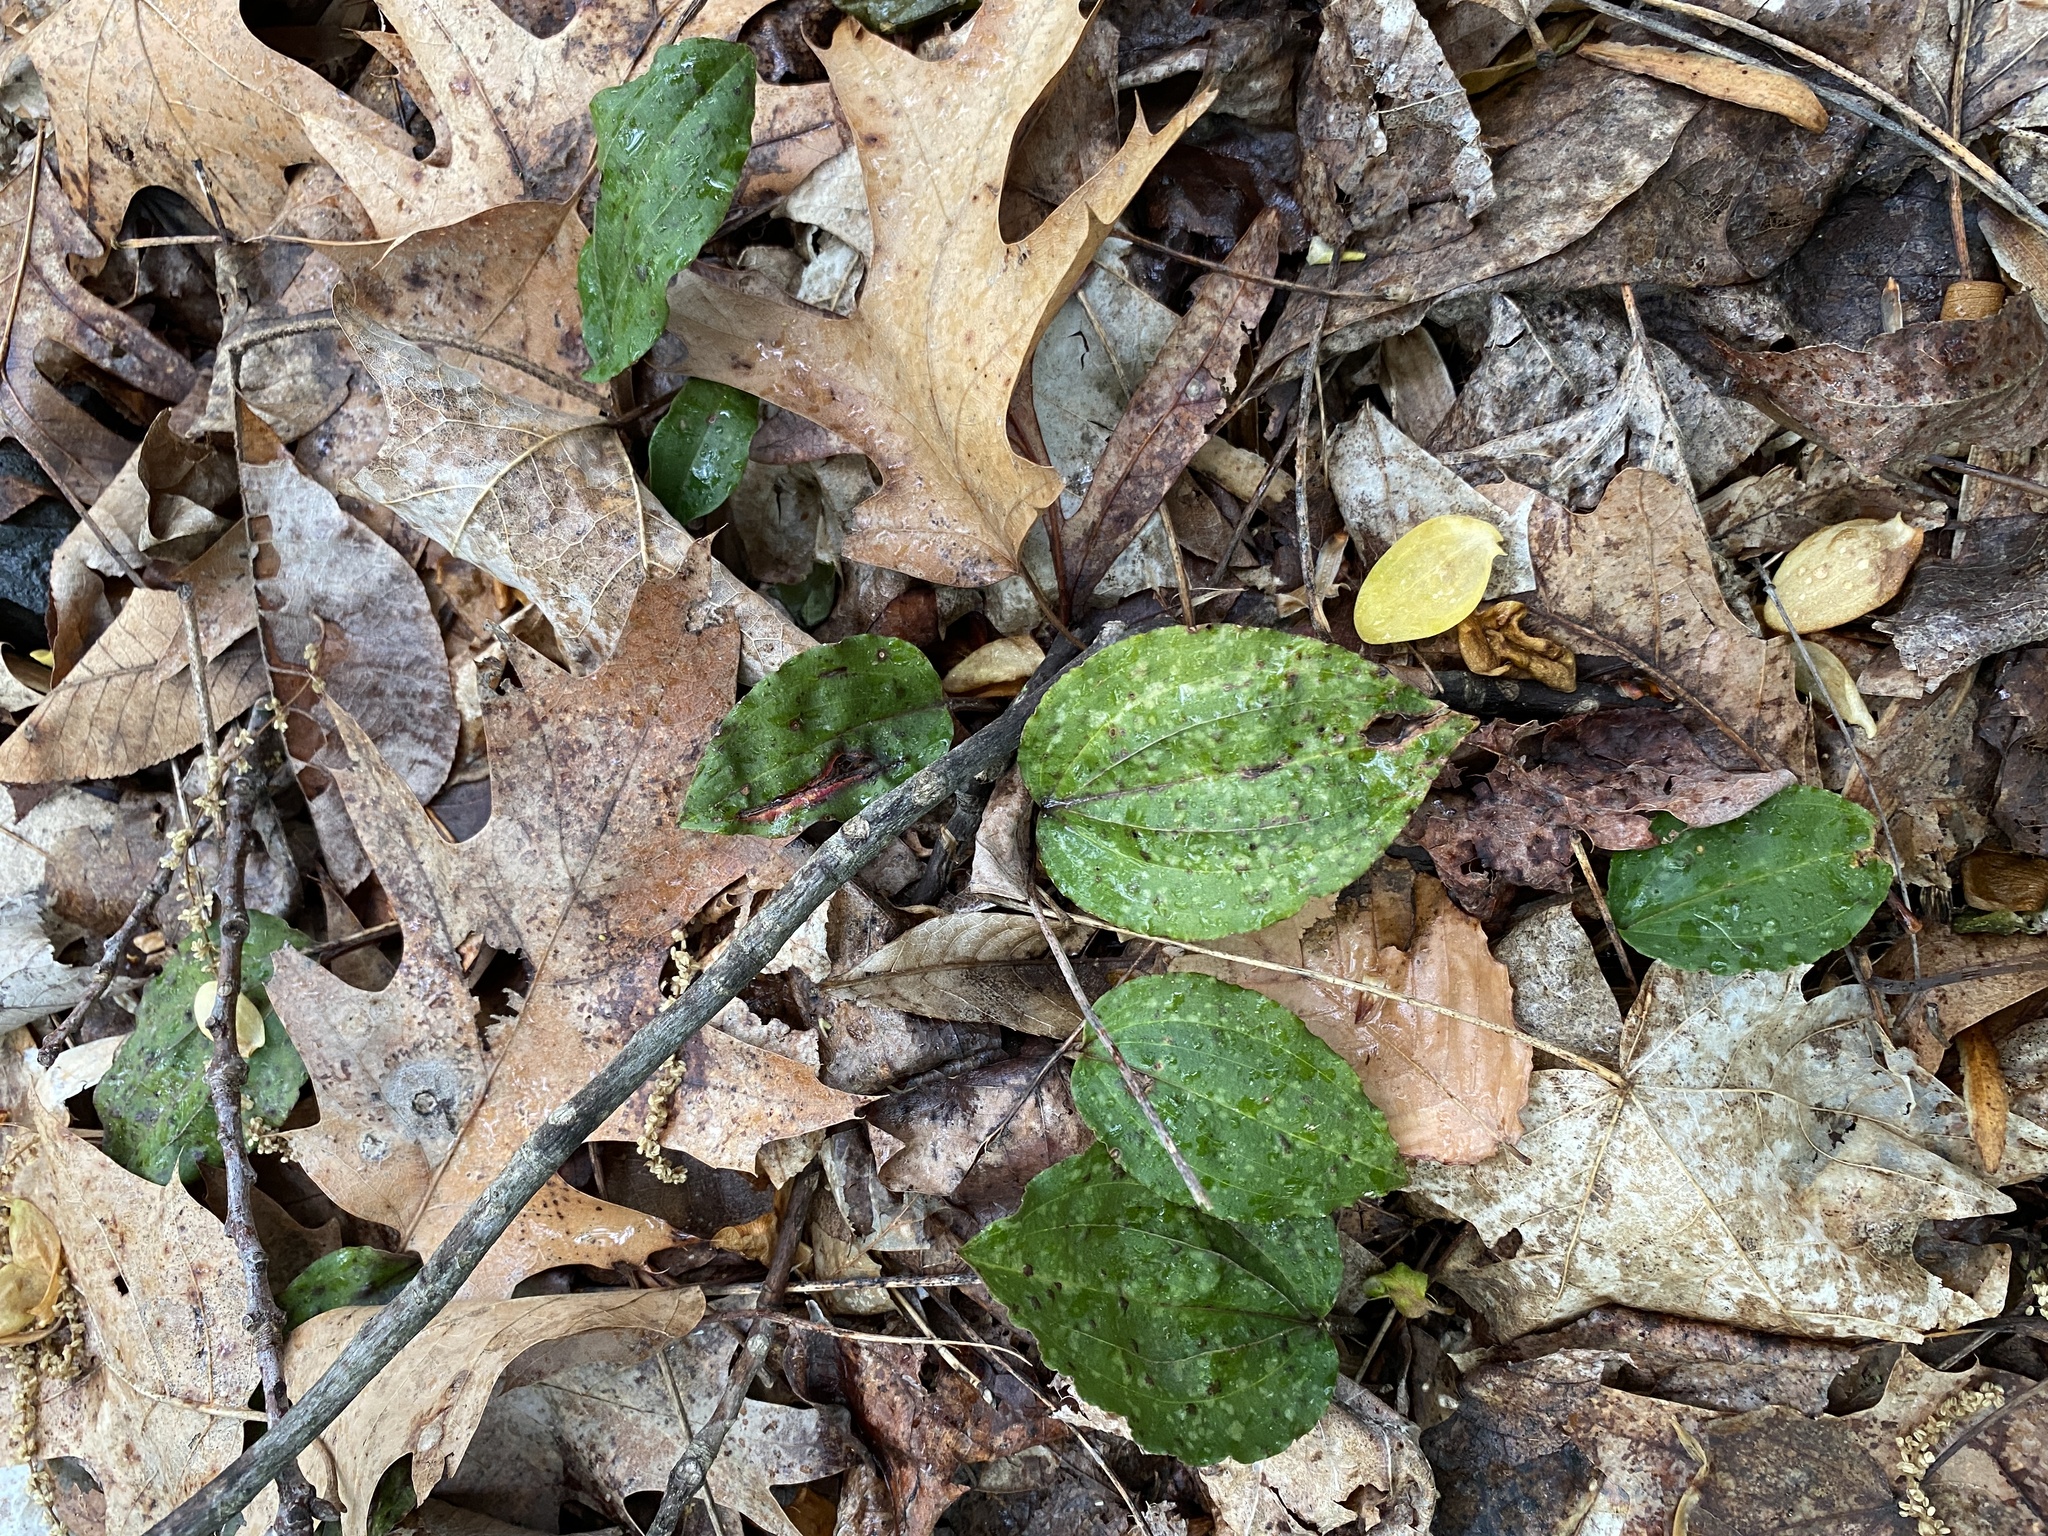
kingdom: Plantae
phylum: Tracheophyta
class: Liliopsida
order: Asparagales
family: Orchidaceae
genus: Tipularia
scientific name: Tipularia discolor
